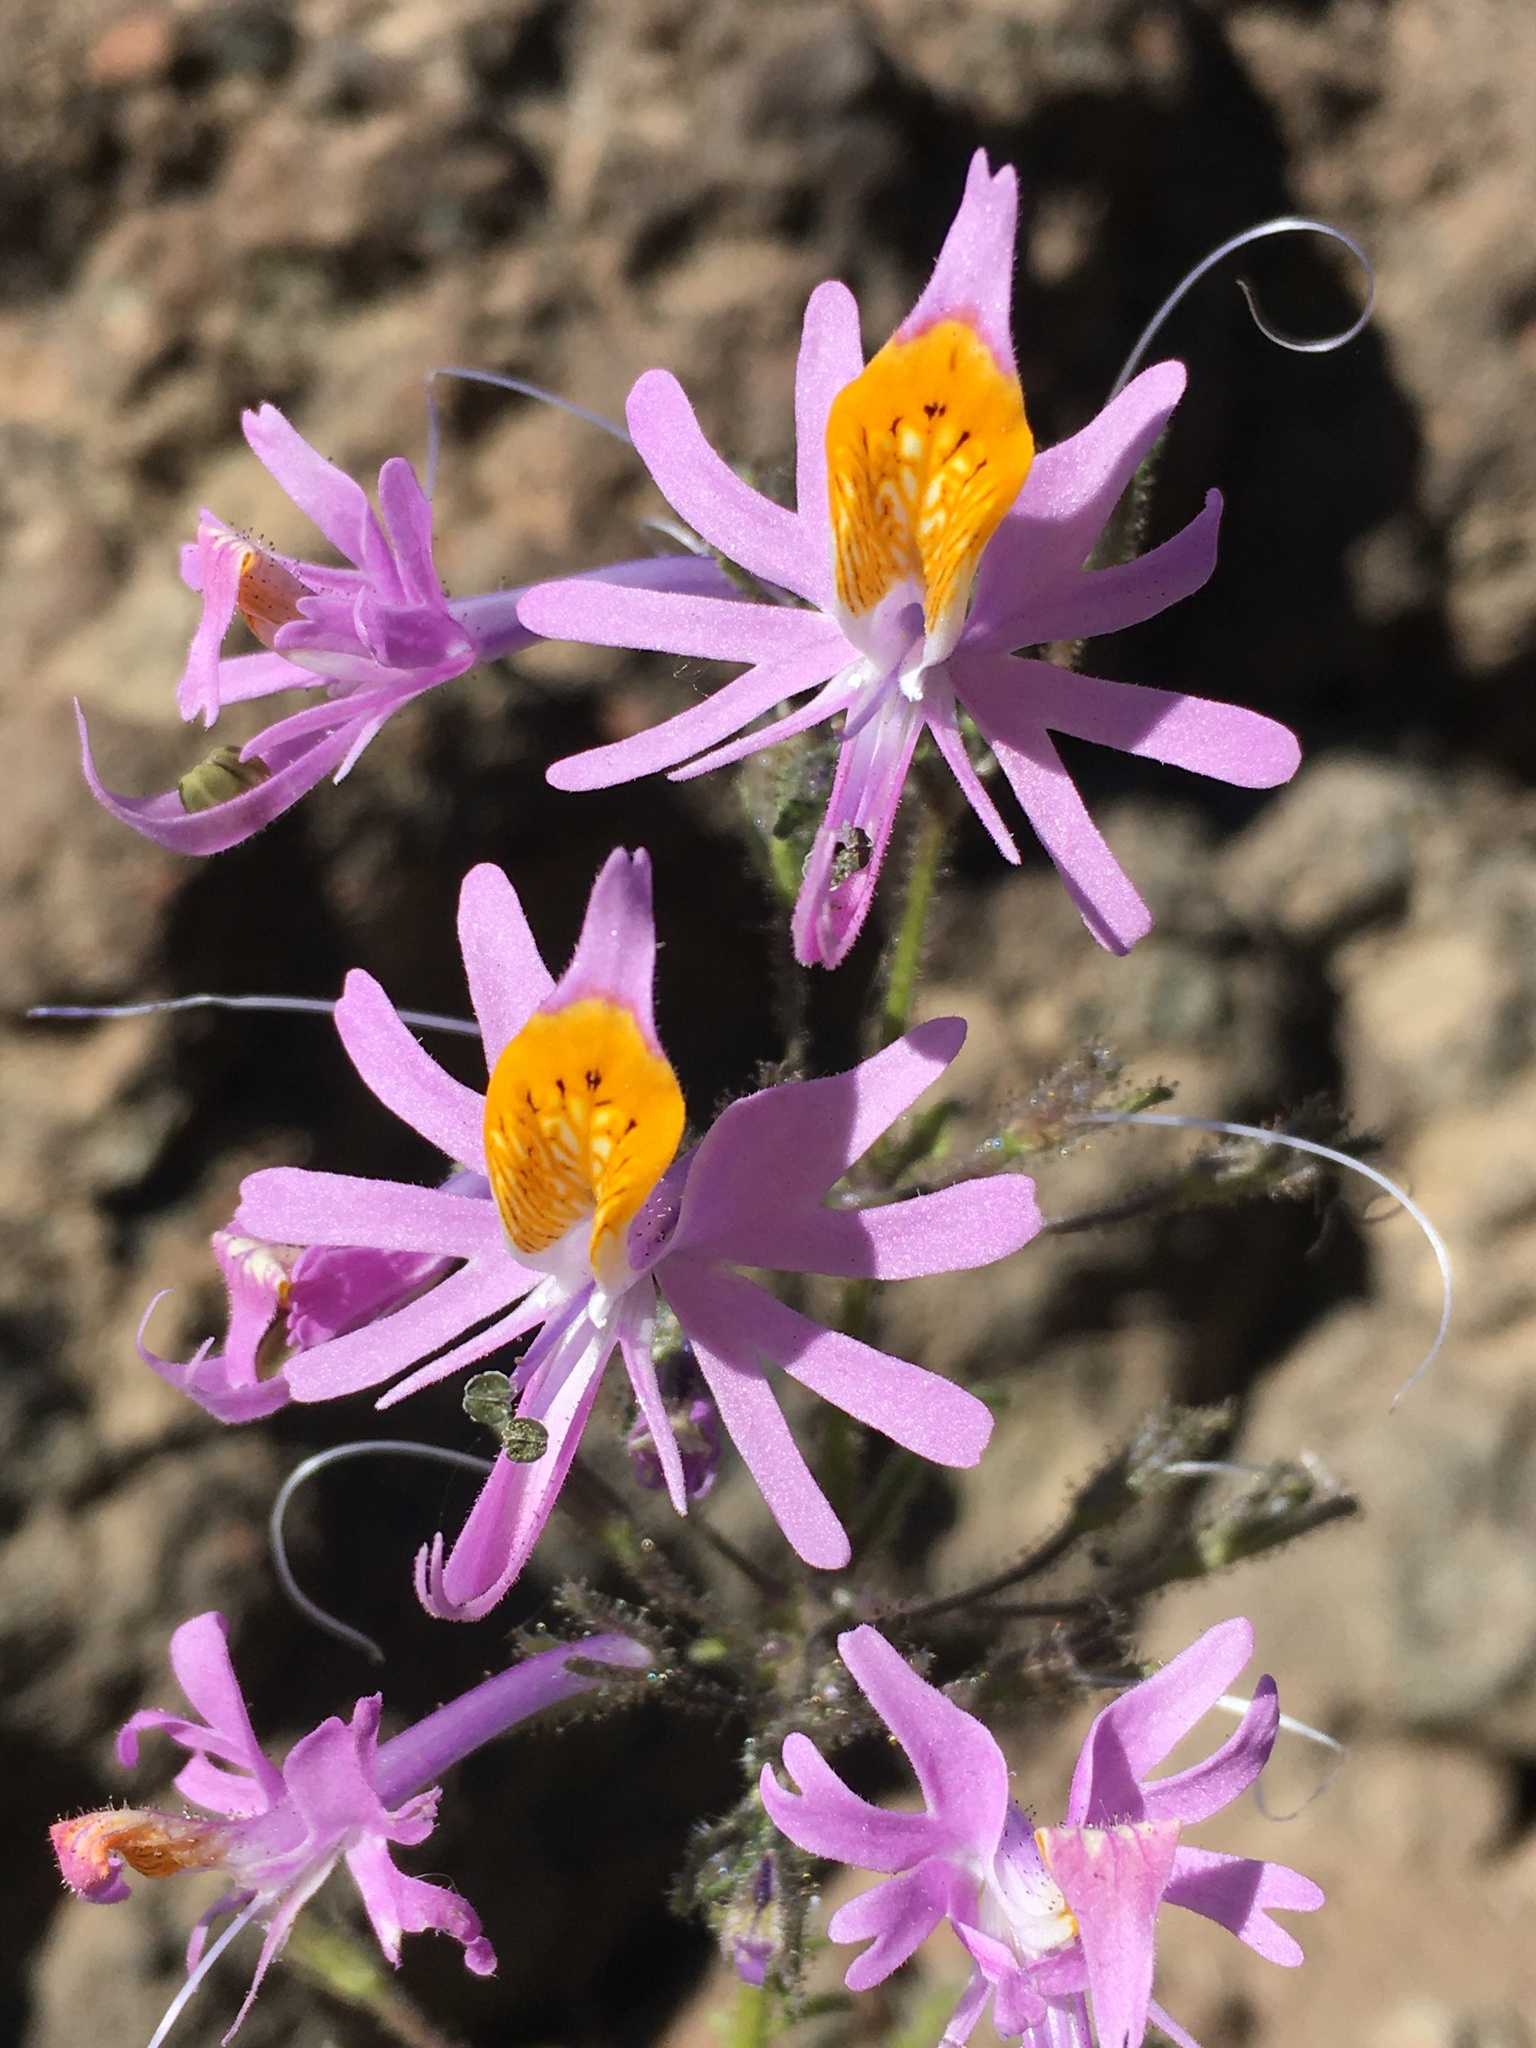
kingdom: Plantae
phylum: Tracheophyta
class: Magnoliopsida
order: Solanales
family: Solanaceae
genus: Schizanthus
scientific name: Schizanthus hookeri
